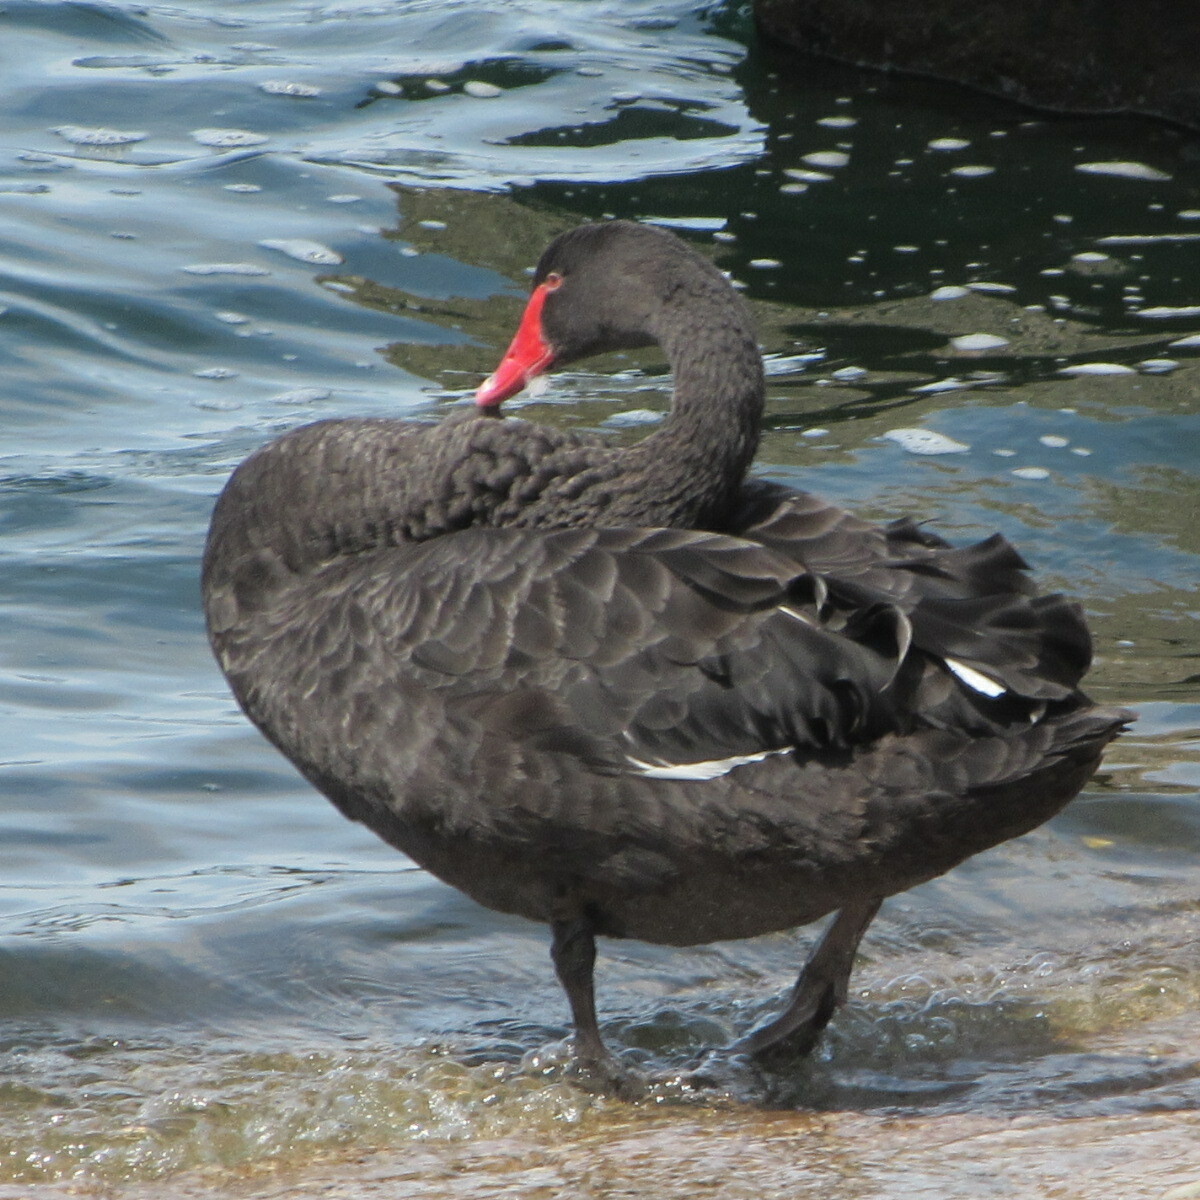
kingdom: Animalia
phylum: Chordata
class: Aves
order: Anseriformes
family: Anatidae
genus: Cygnus
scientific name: Cygnus atratus
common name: Black swan
